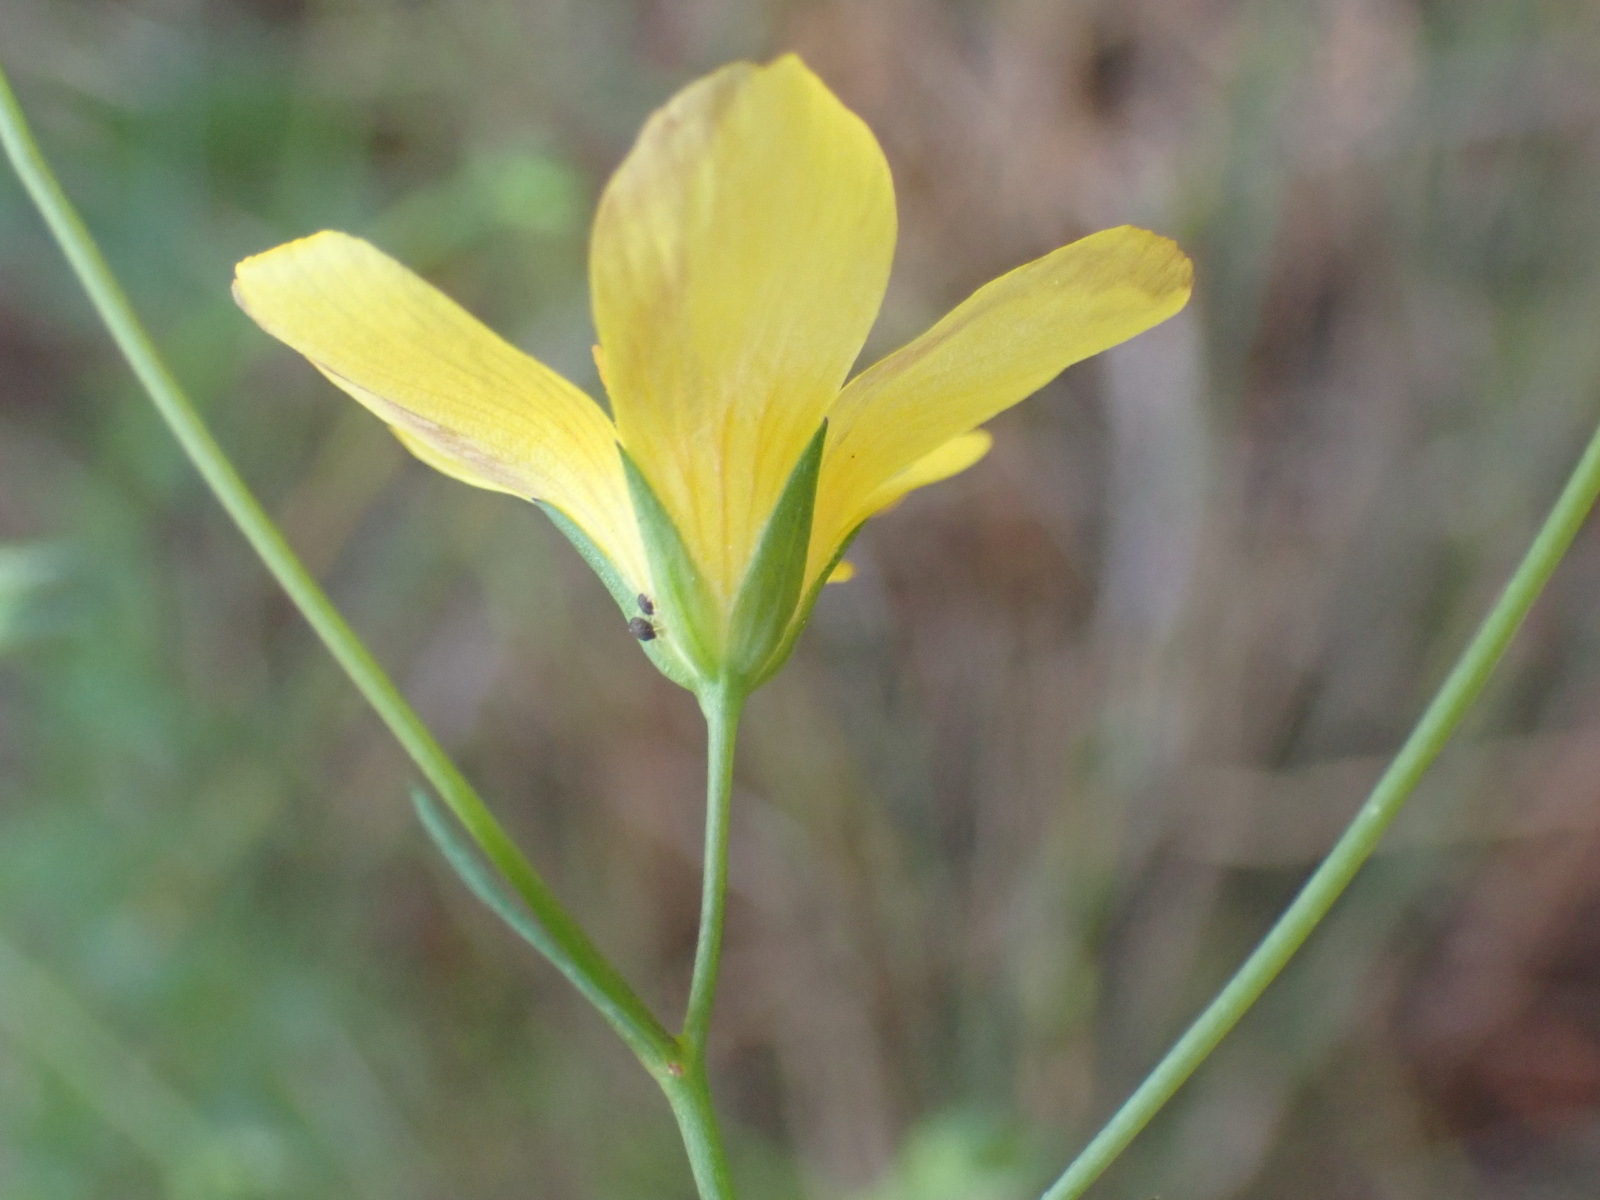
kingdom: Plantae
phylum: Tracheophyta
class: Magnoliopsida
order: Malpighiales
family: Linaceae
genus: Linum
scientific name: Linum africanum
